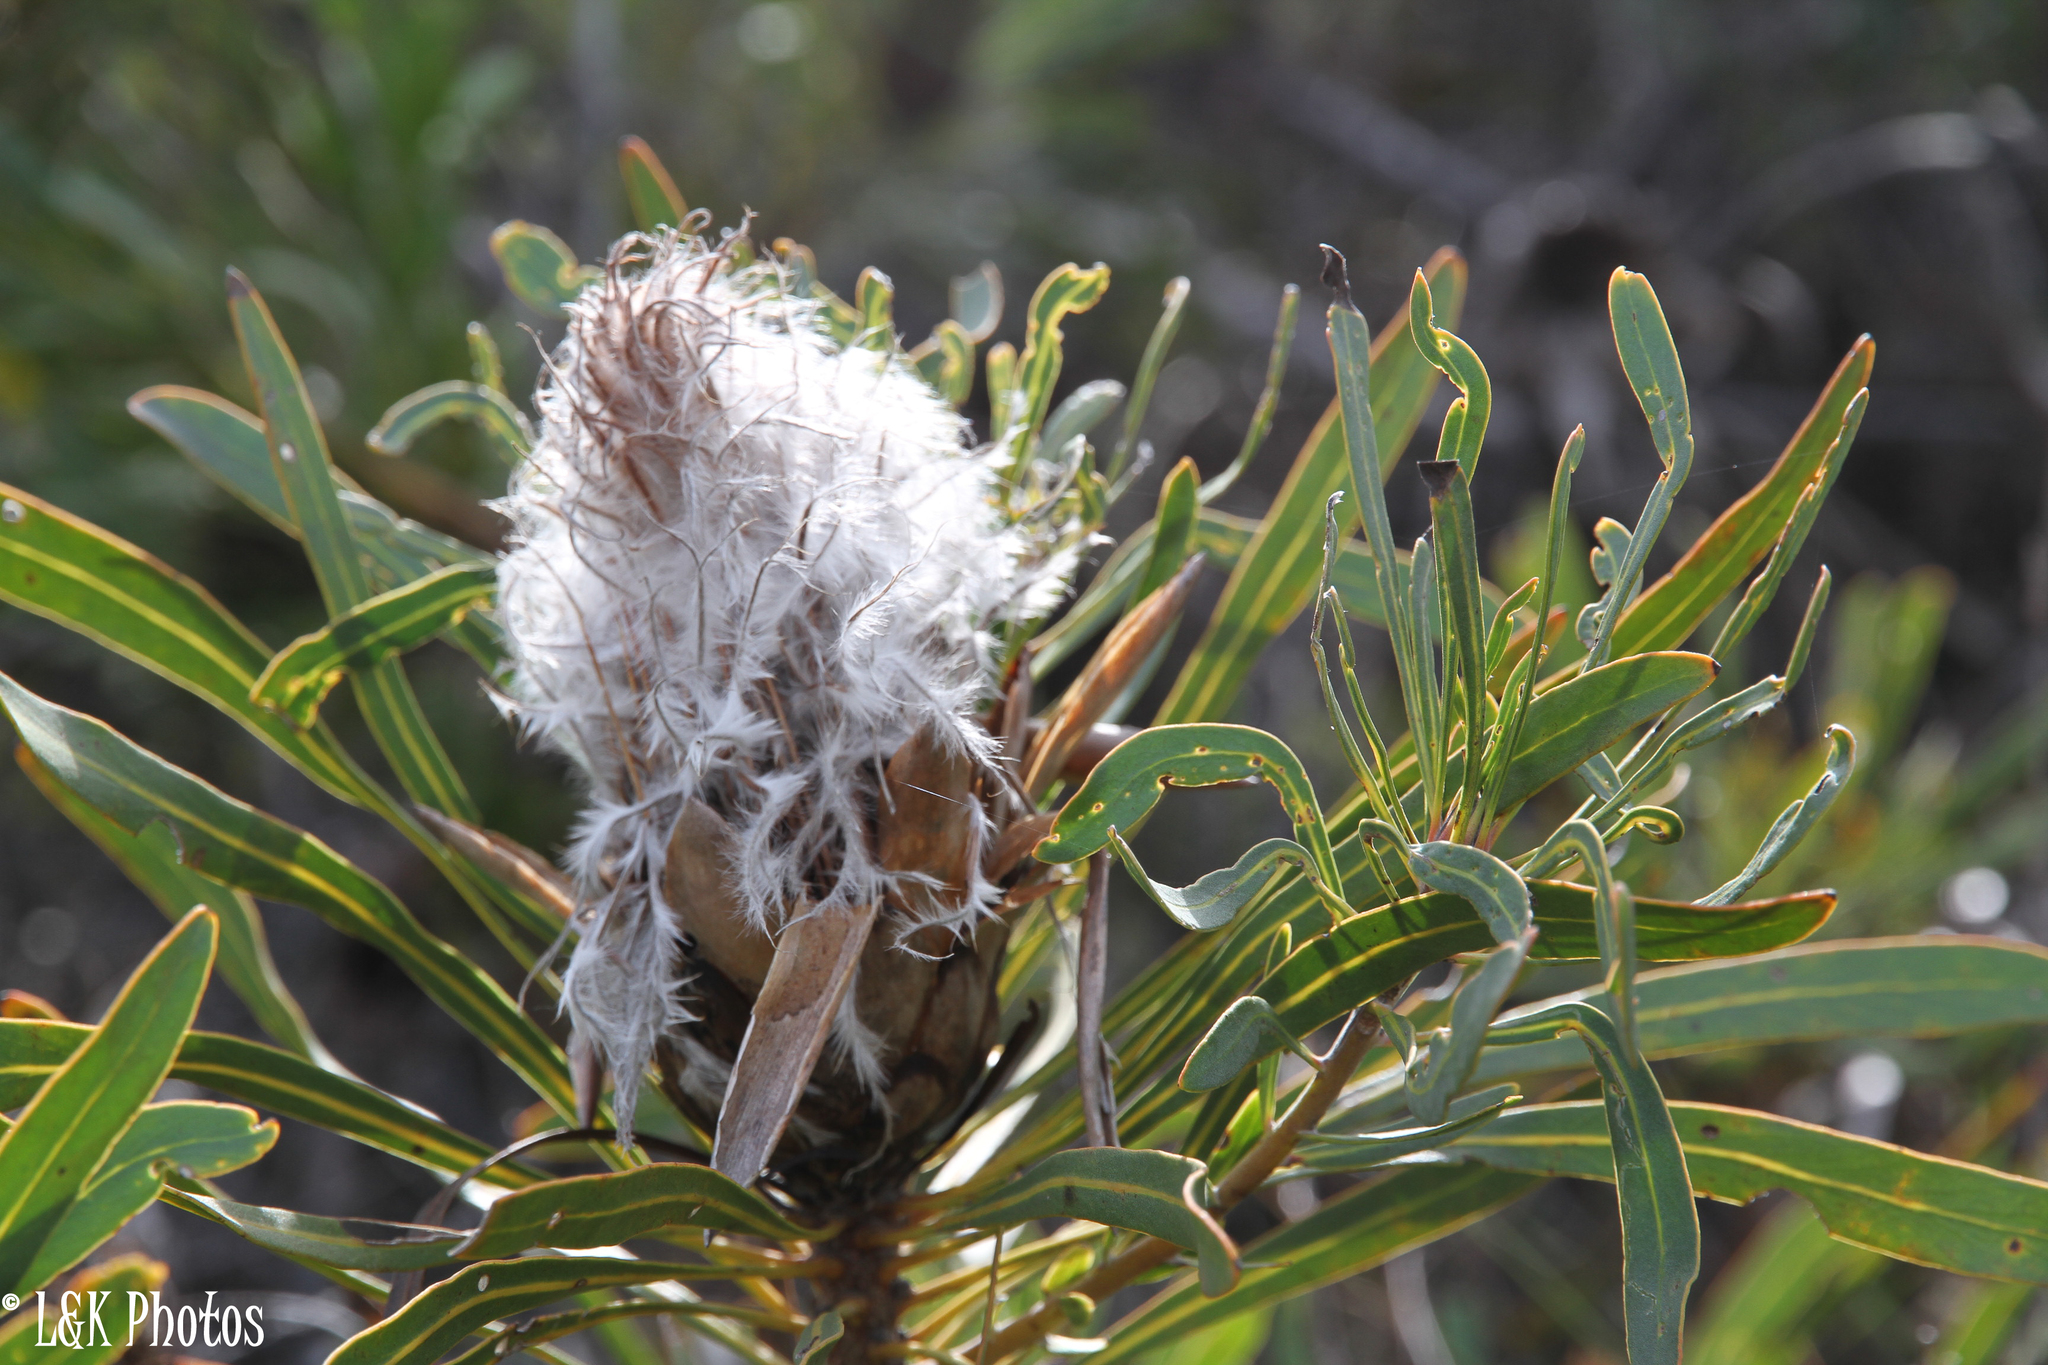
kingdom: Plantae
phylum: Tracheophyta
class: Magnoliopsida
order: Proteales
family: Proteaceae
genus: Protea
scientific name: Protea longifolia
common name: Long-leaf sugarbush
